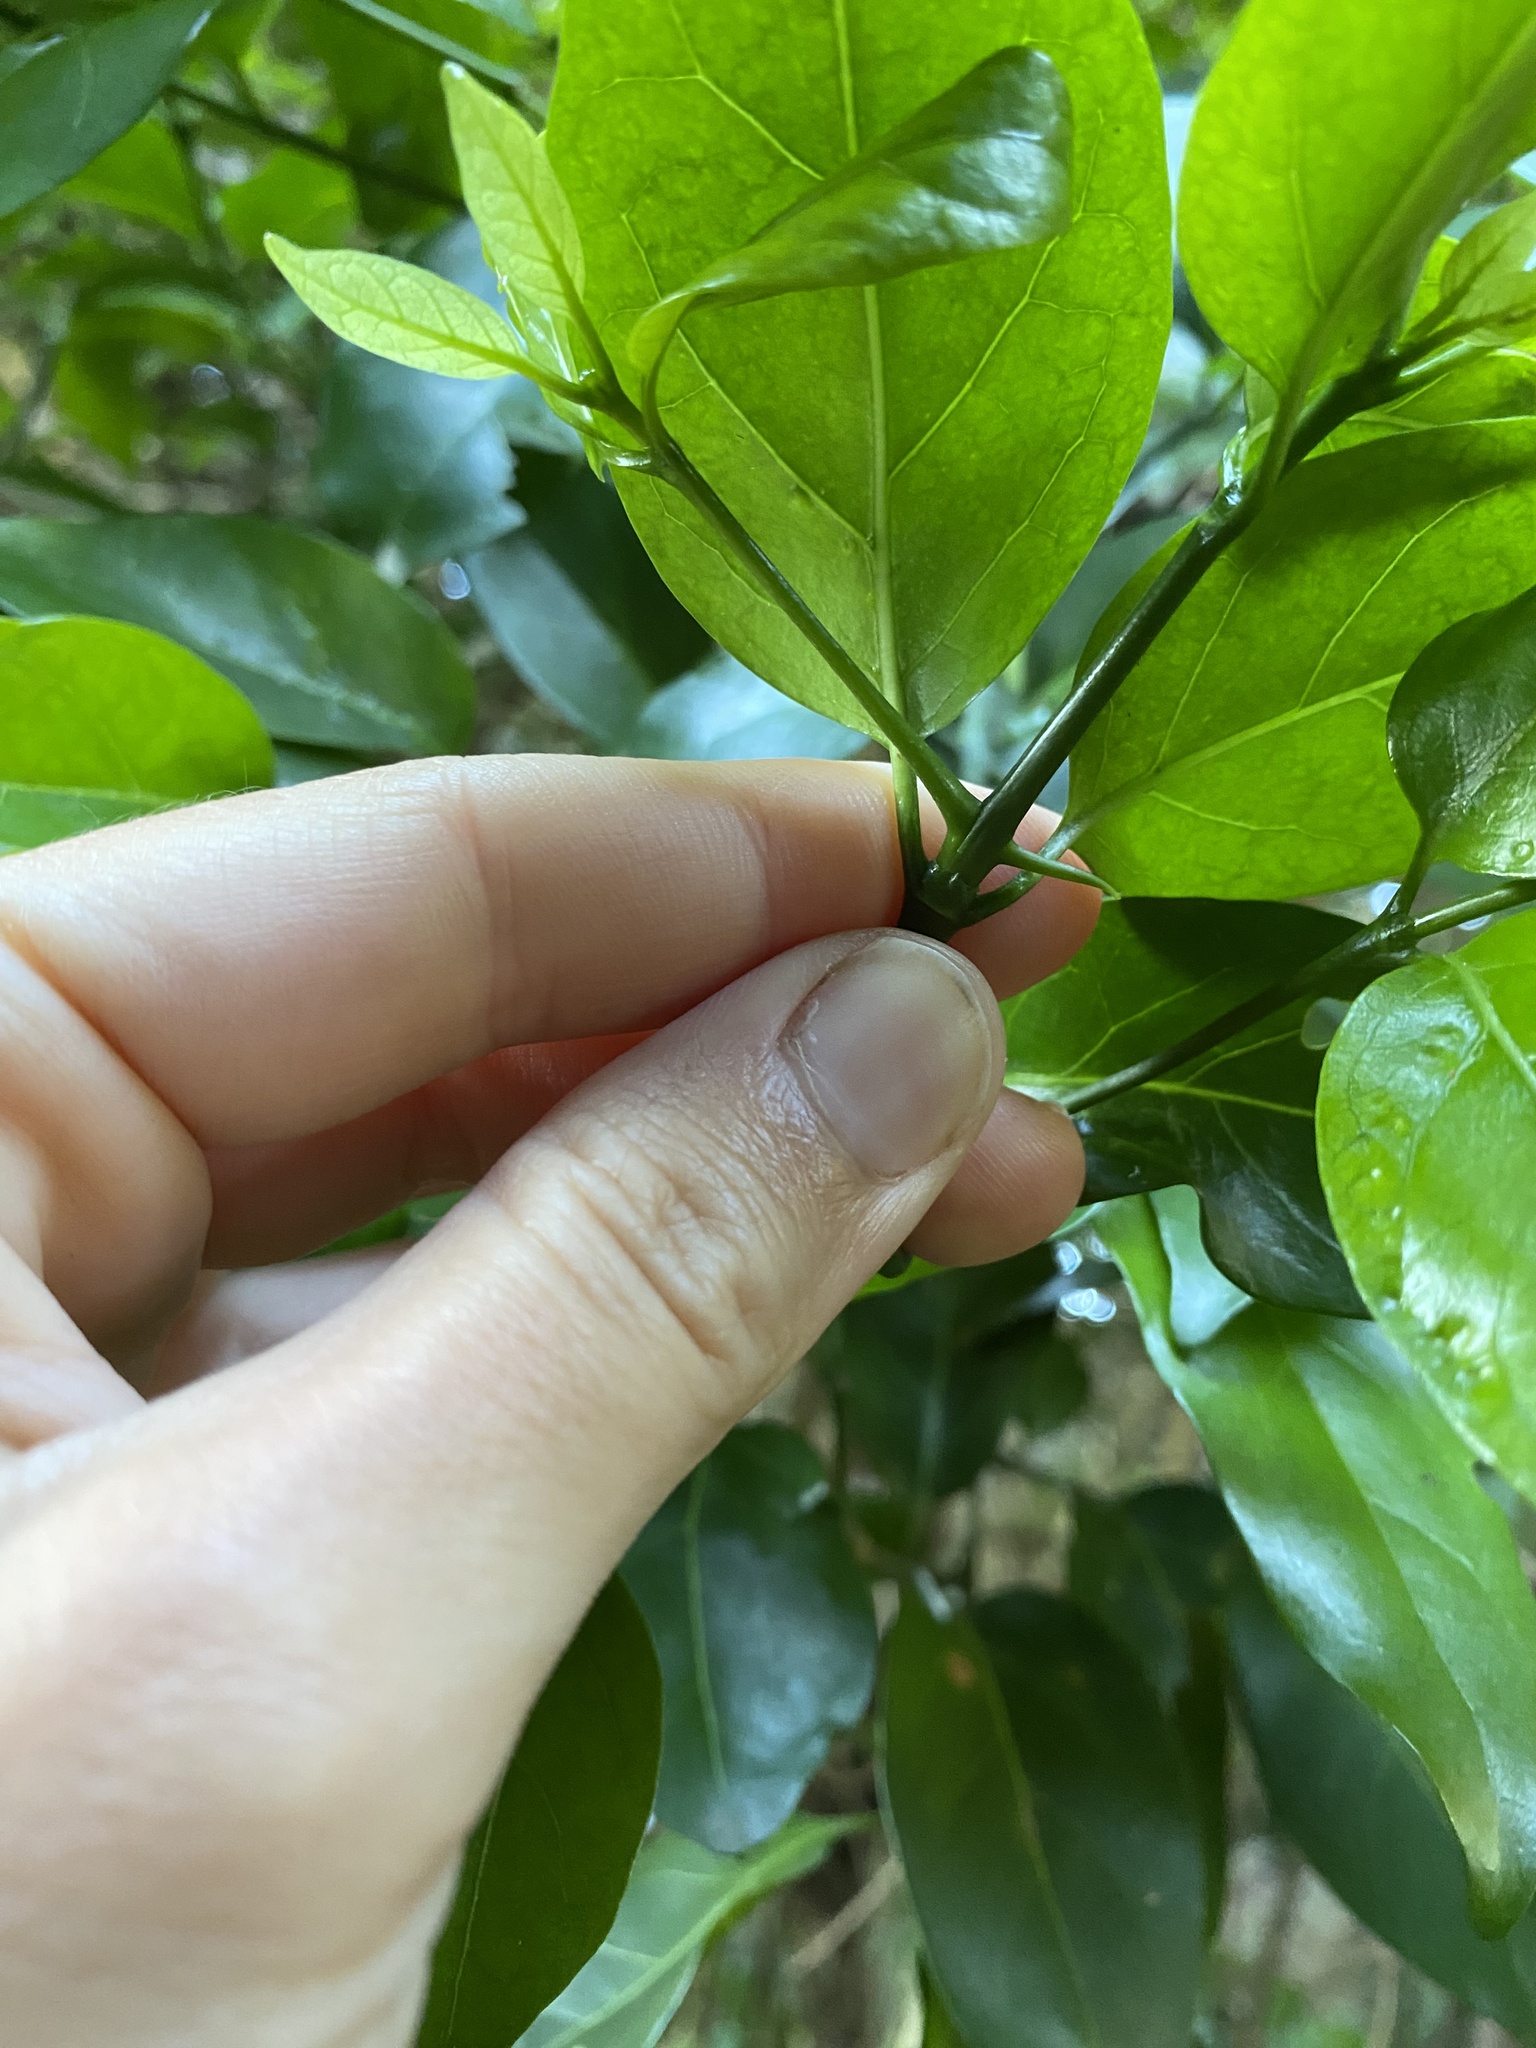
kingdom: Plantae
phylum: Tracheophyta
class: Magnoliopsida
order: Gentianales
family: Rubiaceae
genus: Canthium
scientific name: Canthium inerme
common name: Unarmed turkey-berry
